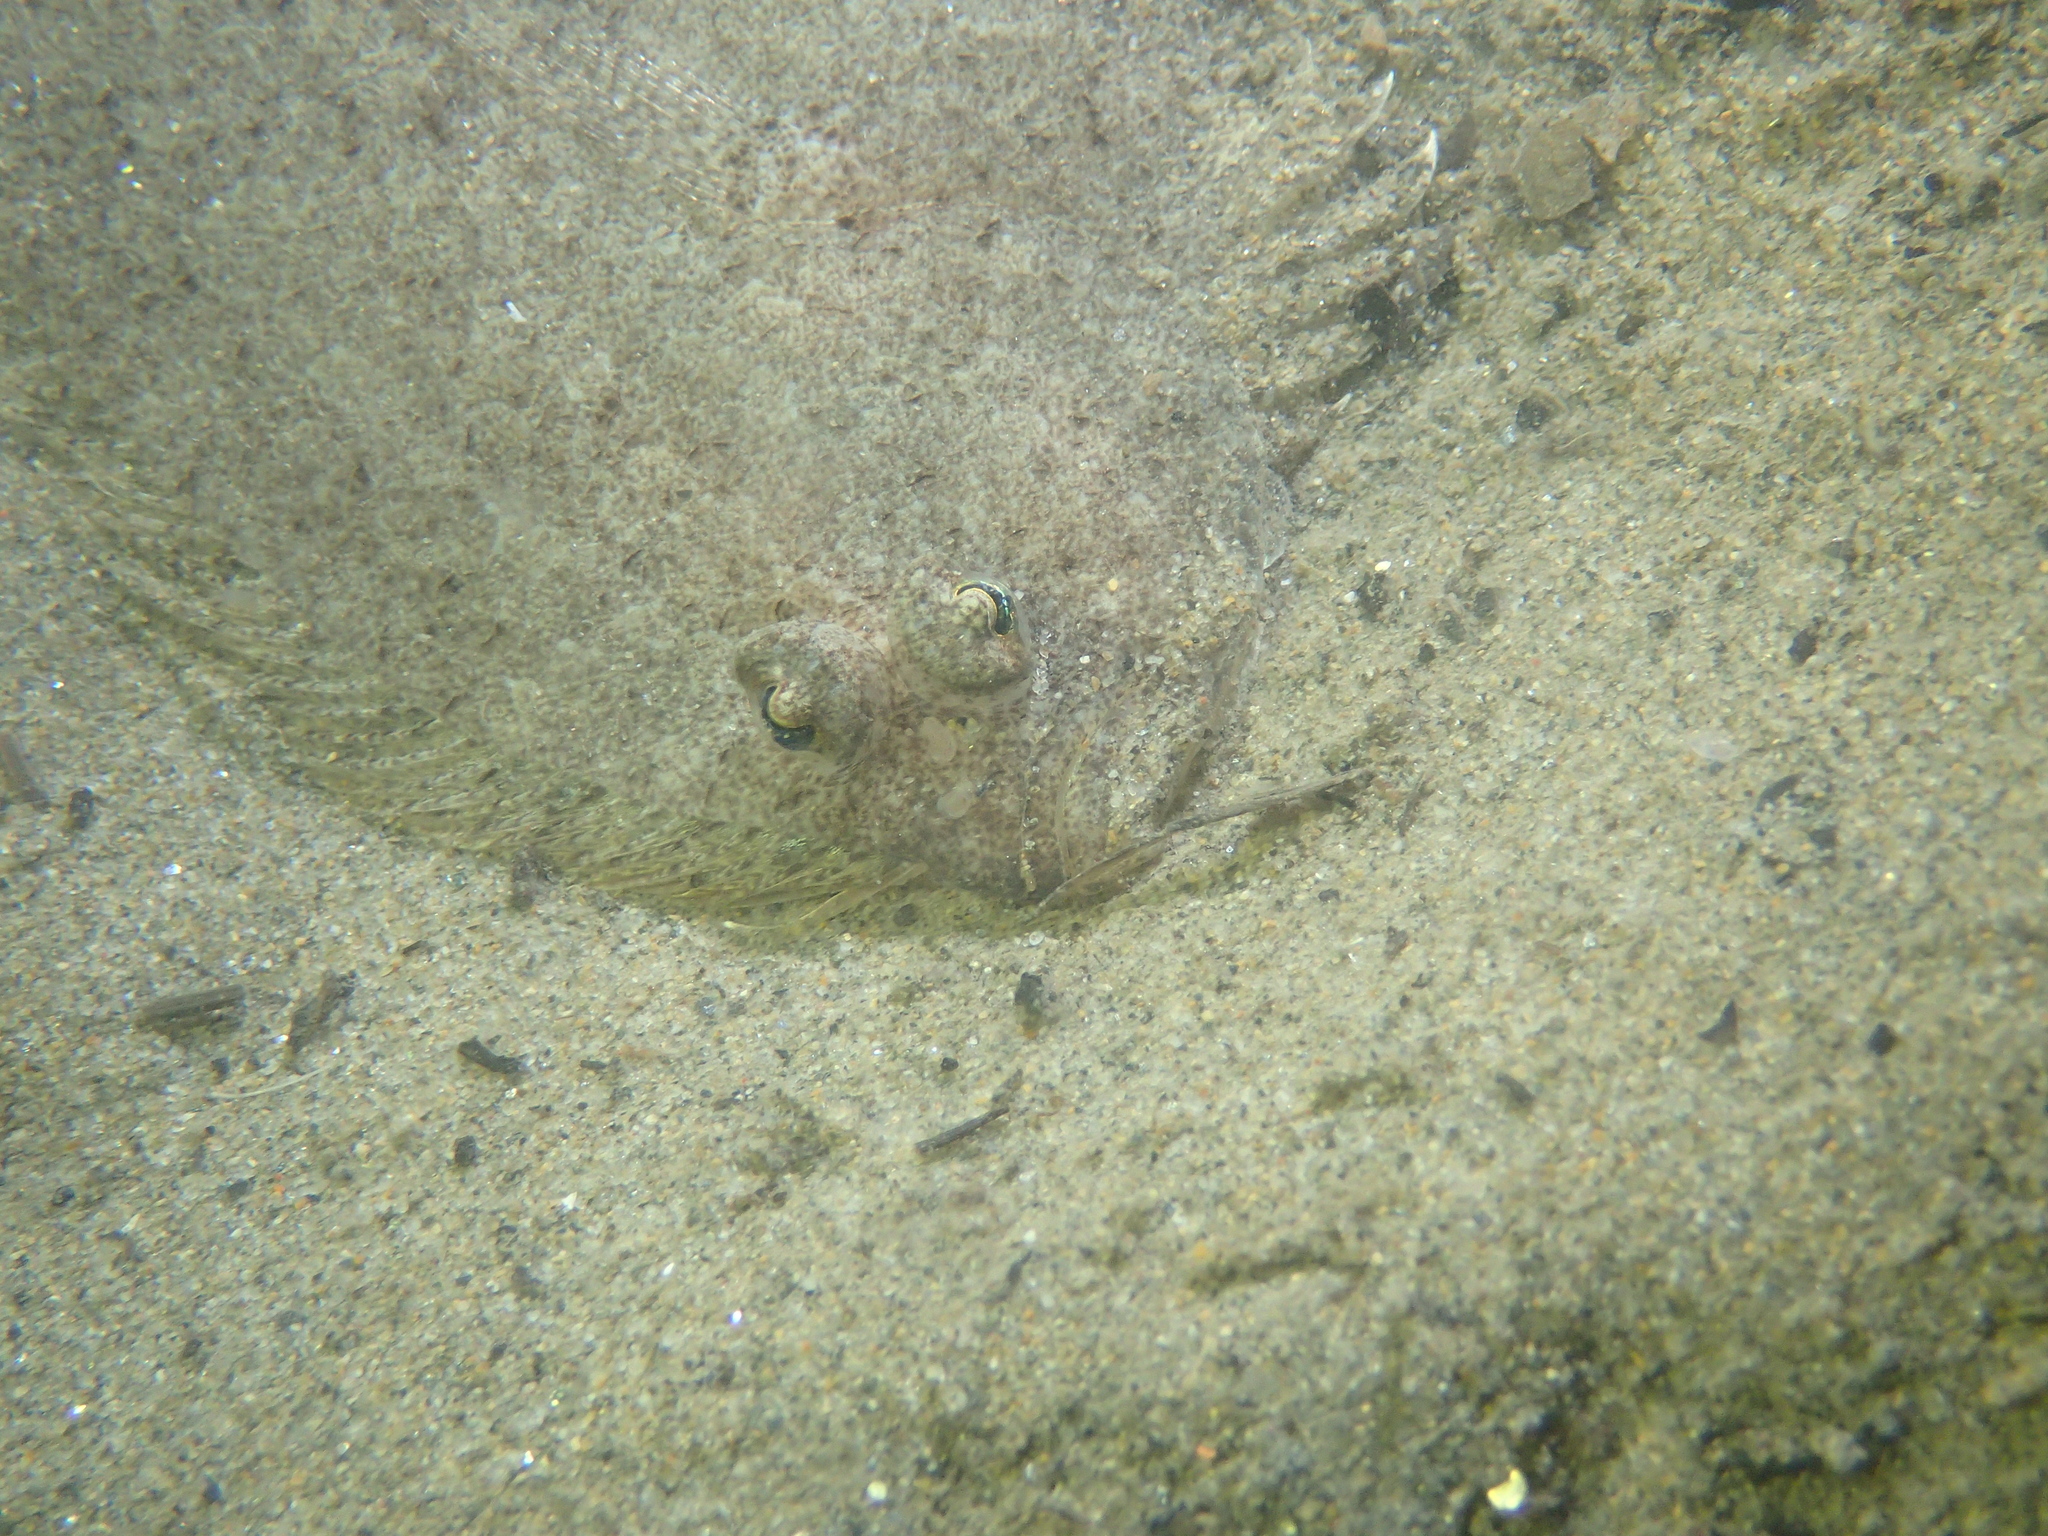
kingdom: Animalia
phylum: Chordata
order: Pleuronectiformes
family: Bothidae
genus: Arnoglossus
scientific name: Arnoglossus laterna
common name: Scaldfish
